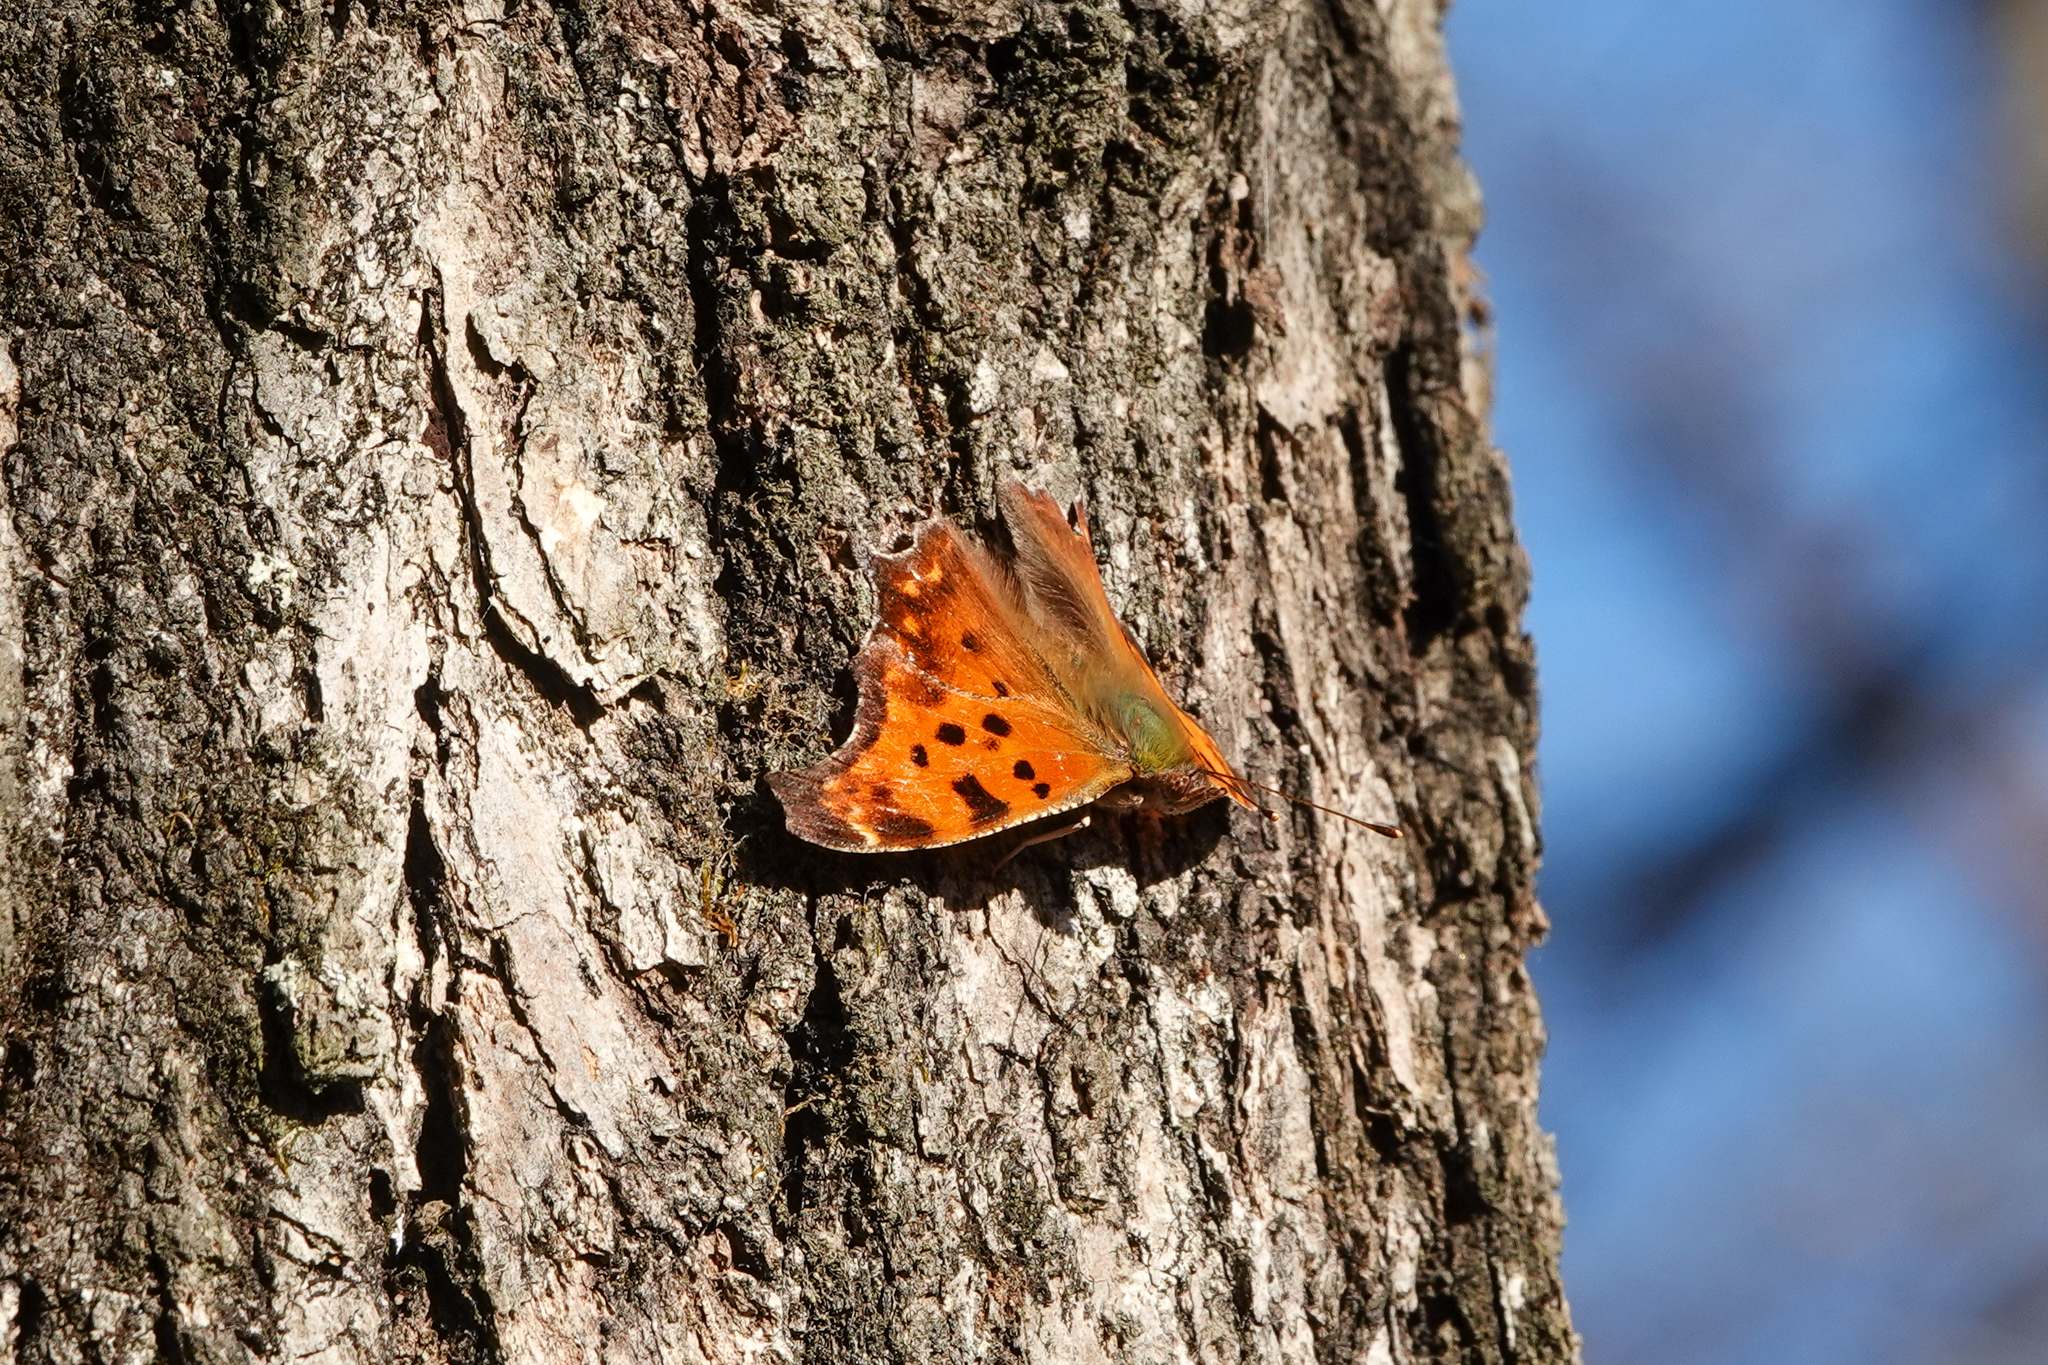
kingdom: Animalia
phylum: Arthropoda
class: Insecta
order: Lepidoptera
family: Nymphalidae
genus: Polygonia
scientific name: Polygonia comma
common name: Eastern comma
